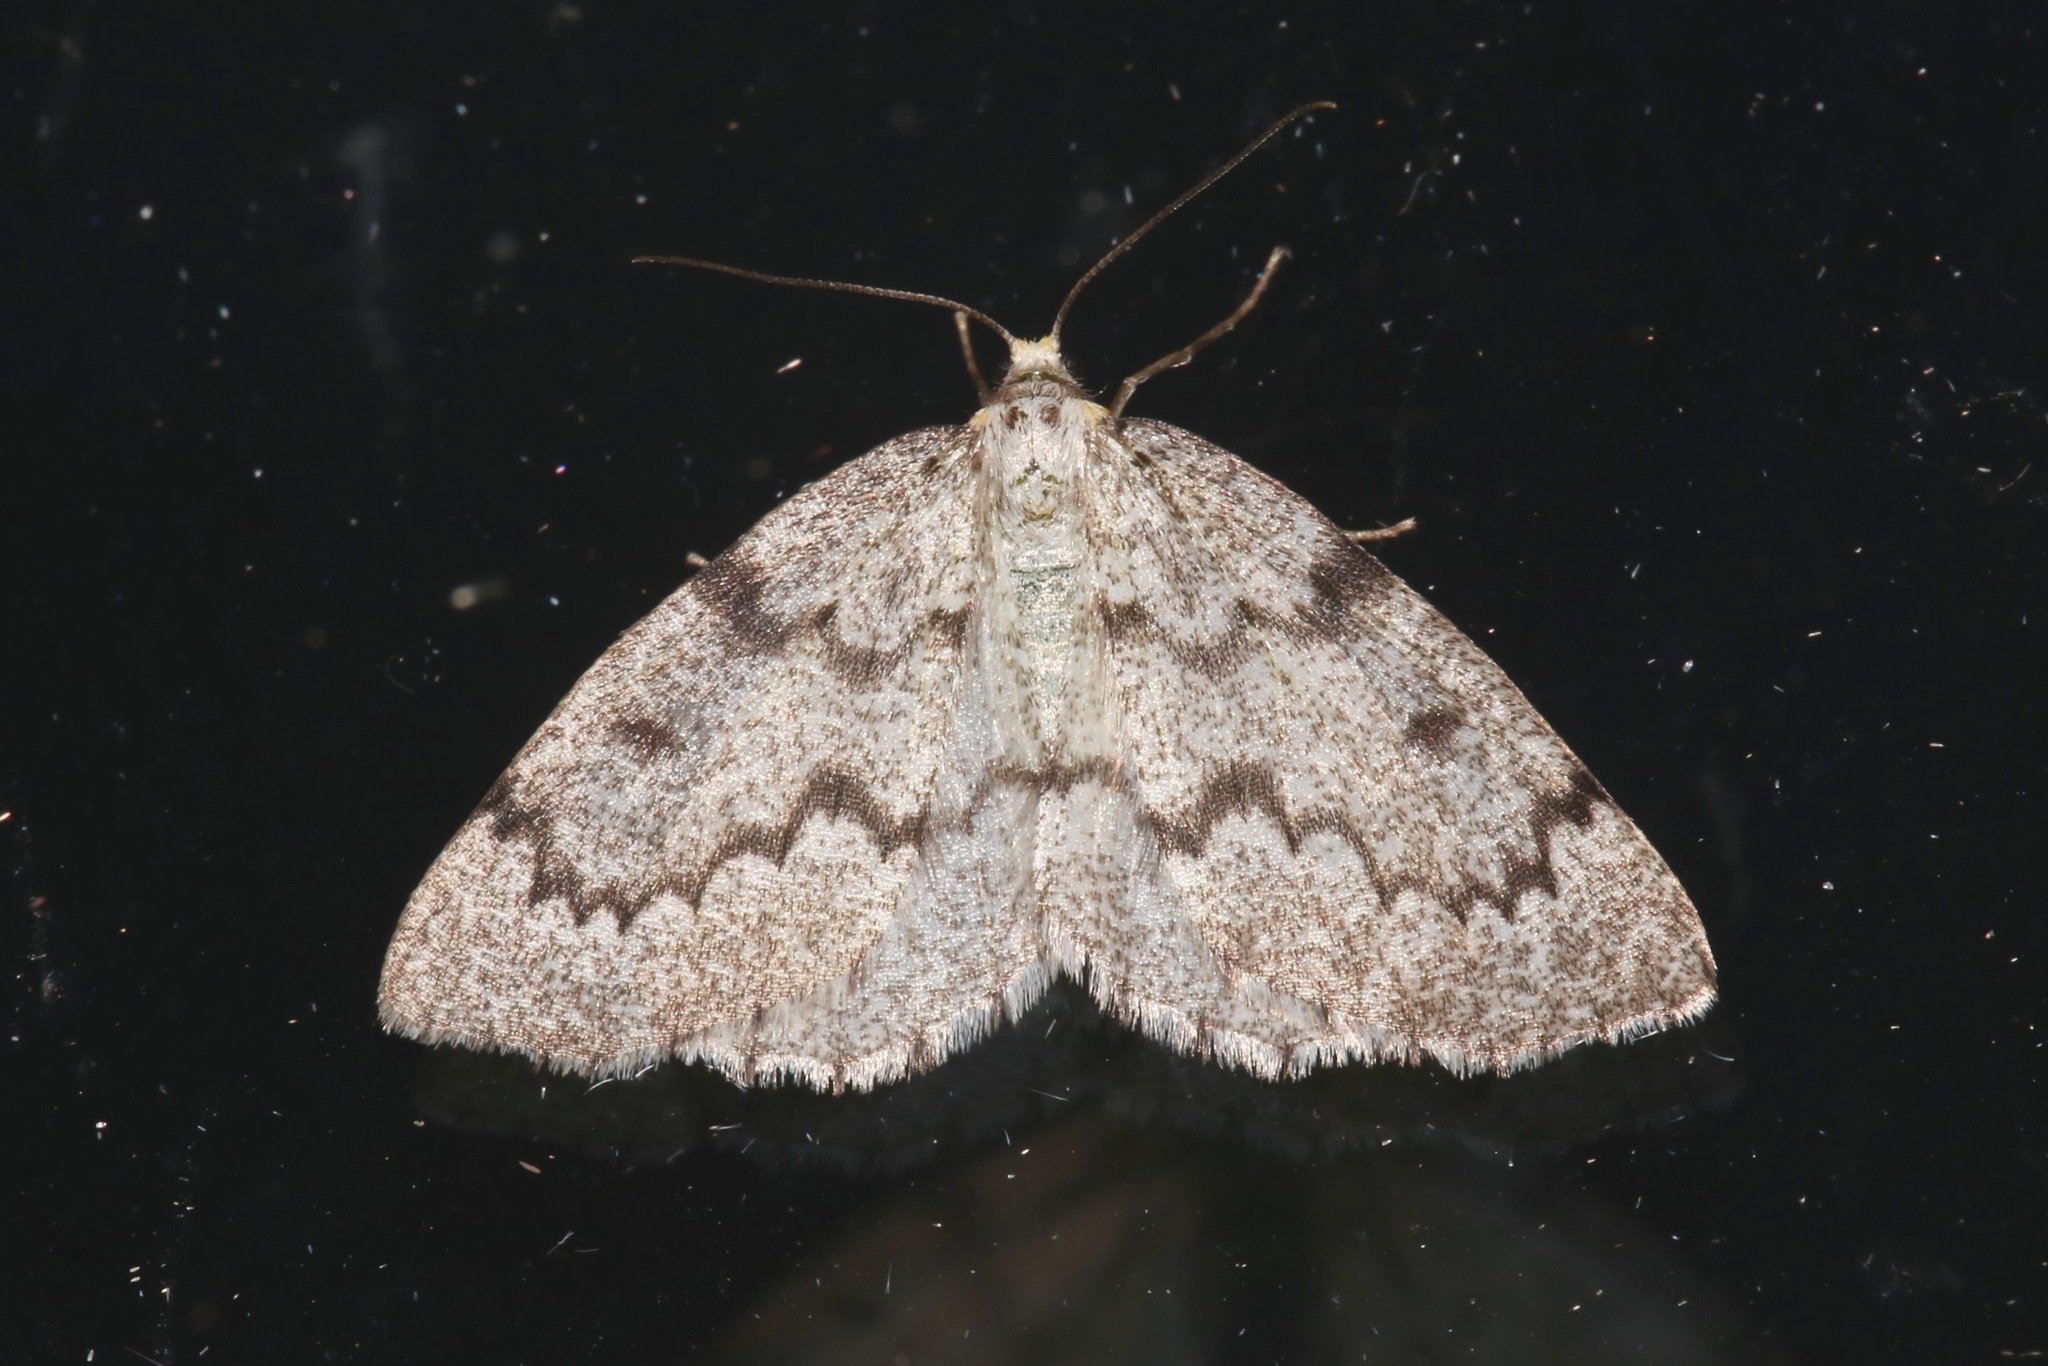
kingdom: Animalia
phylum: Arthropoda
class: Insecta
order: Lepidoptera
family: Geometridae
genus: Nepytia
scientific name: Nepytia canosaria
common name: False hemlock looper
